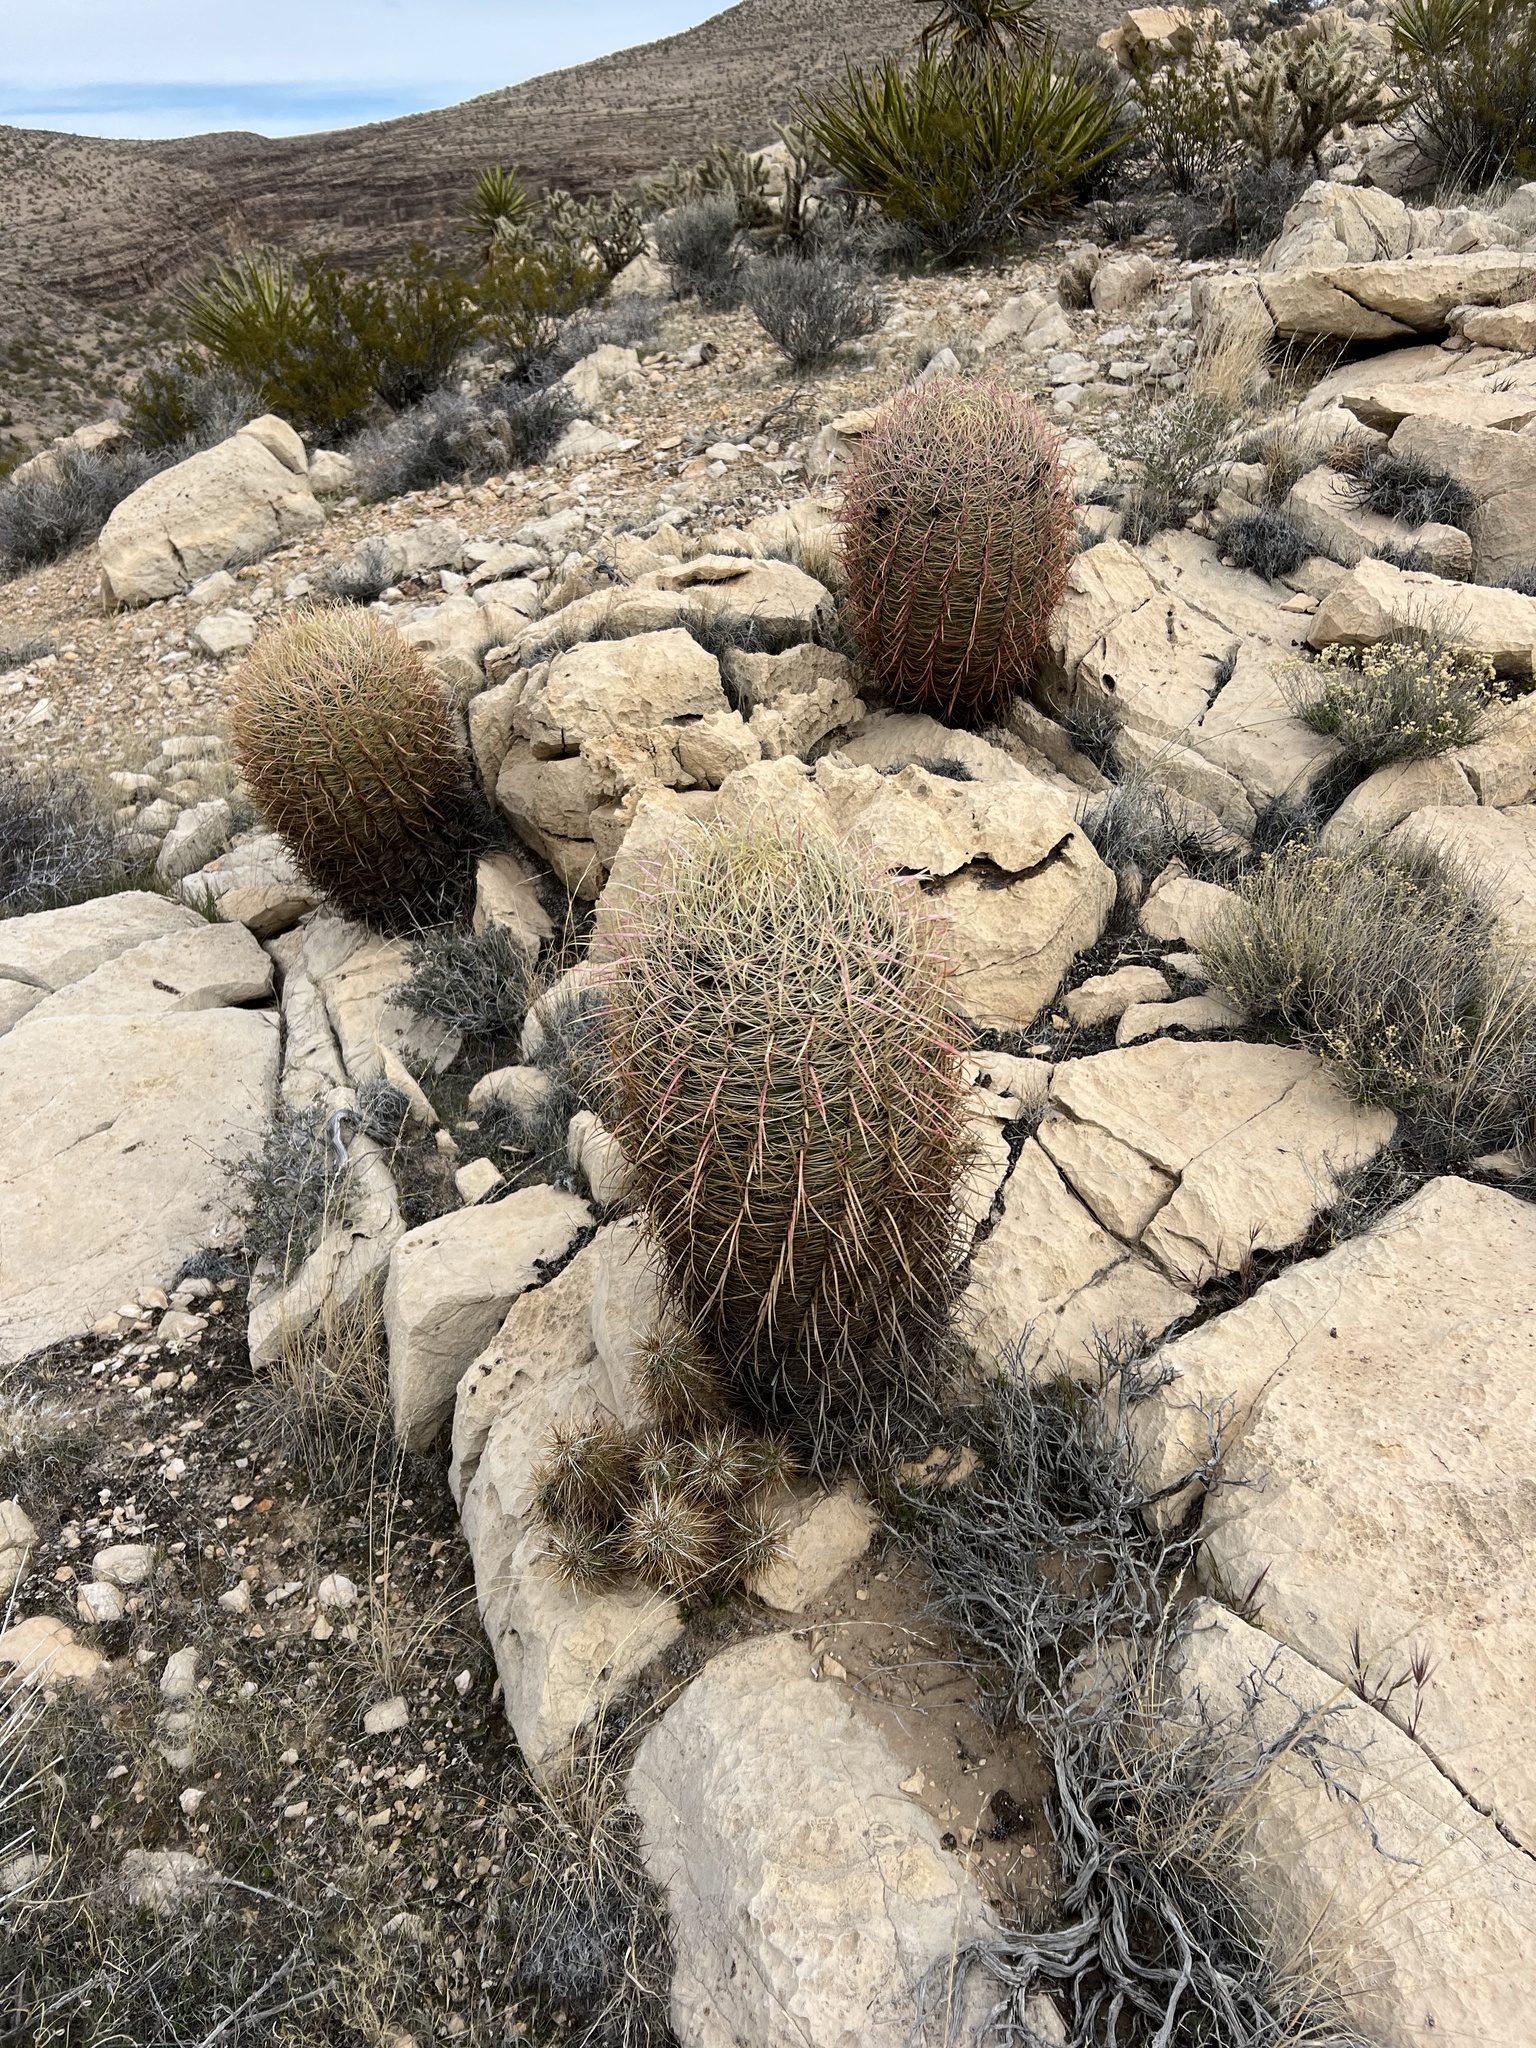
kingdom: Plantae
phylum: Tracheophyta
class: Magnoliopsida
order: Caryophyllales
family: Cactaceae
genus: Ferocactus
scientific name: Ferocactus cylindraceus
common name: California barrel cactus
